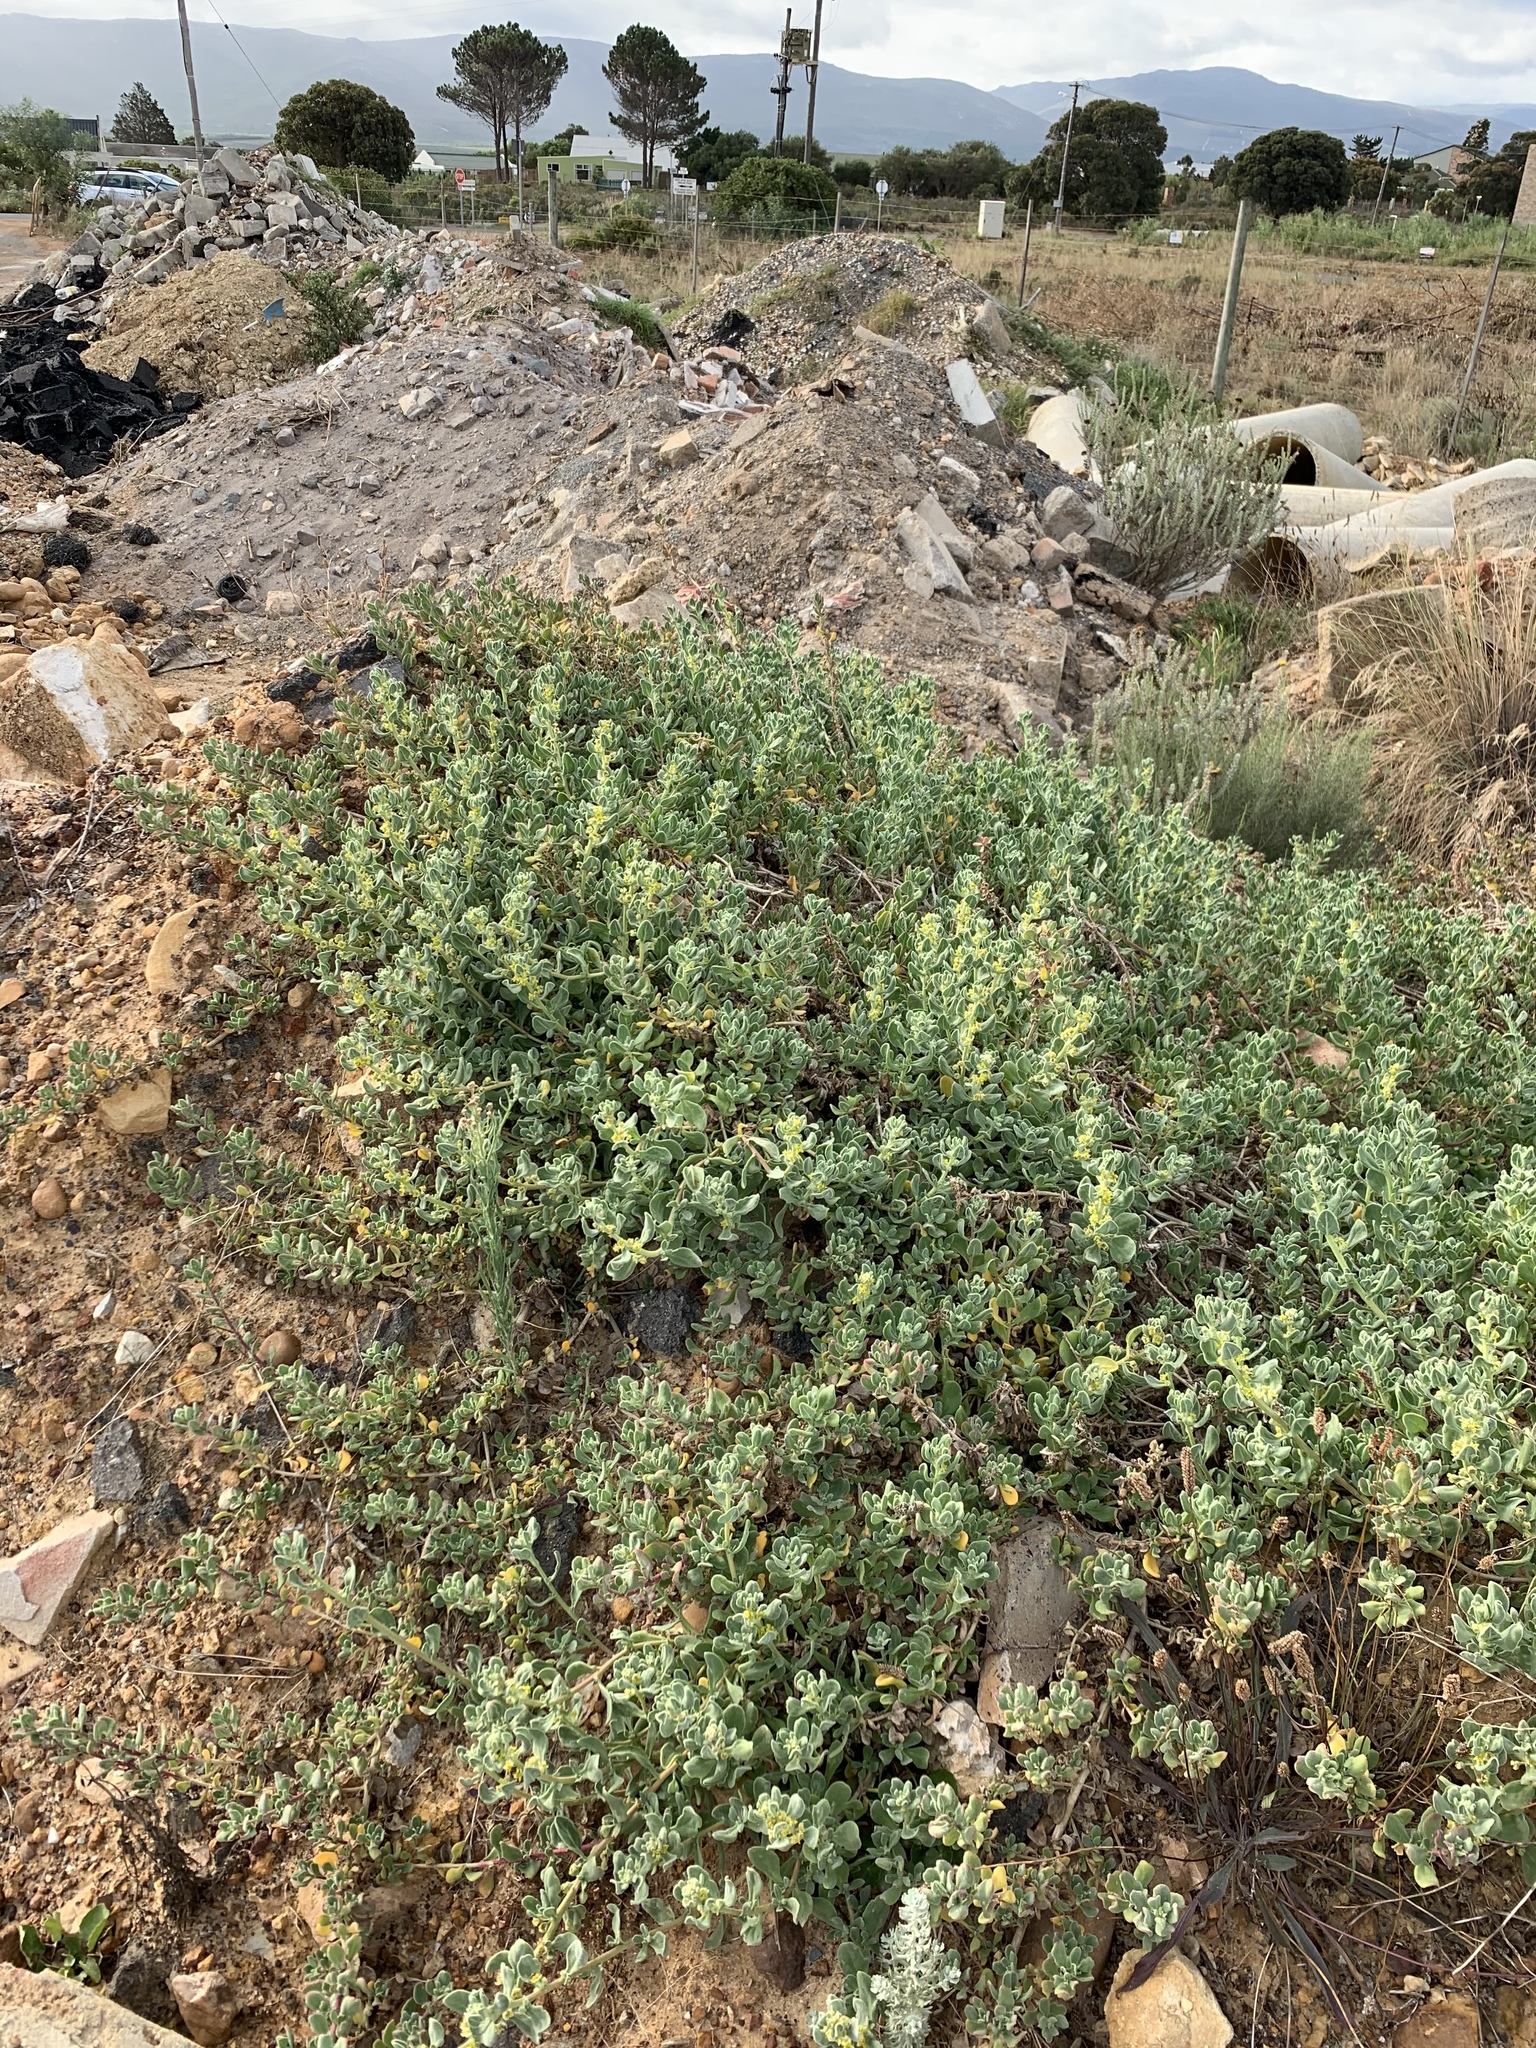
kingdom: Plantae
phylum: Tracheophyta
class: Magnoliopsida
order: Caryophyllales
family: Aizoaceae
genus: Tetragonia
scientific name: Tetragonia decumbens
